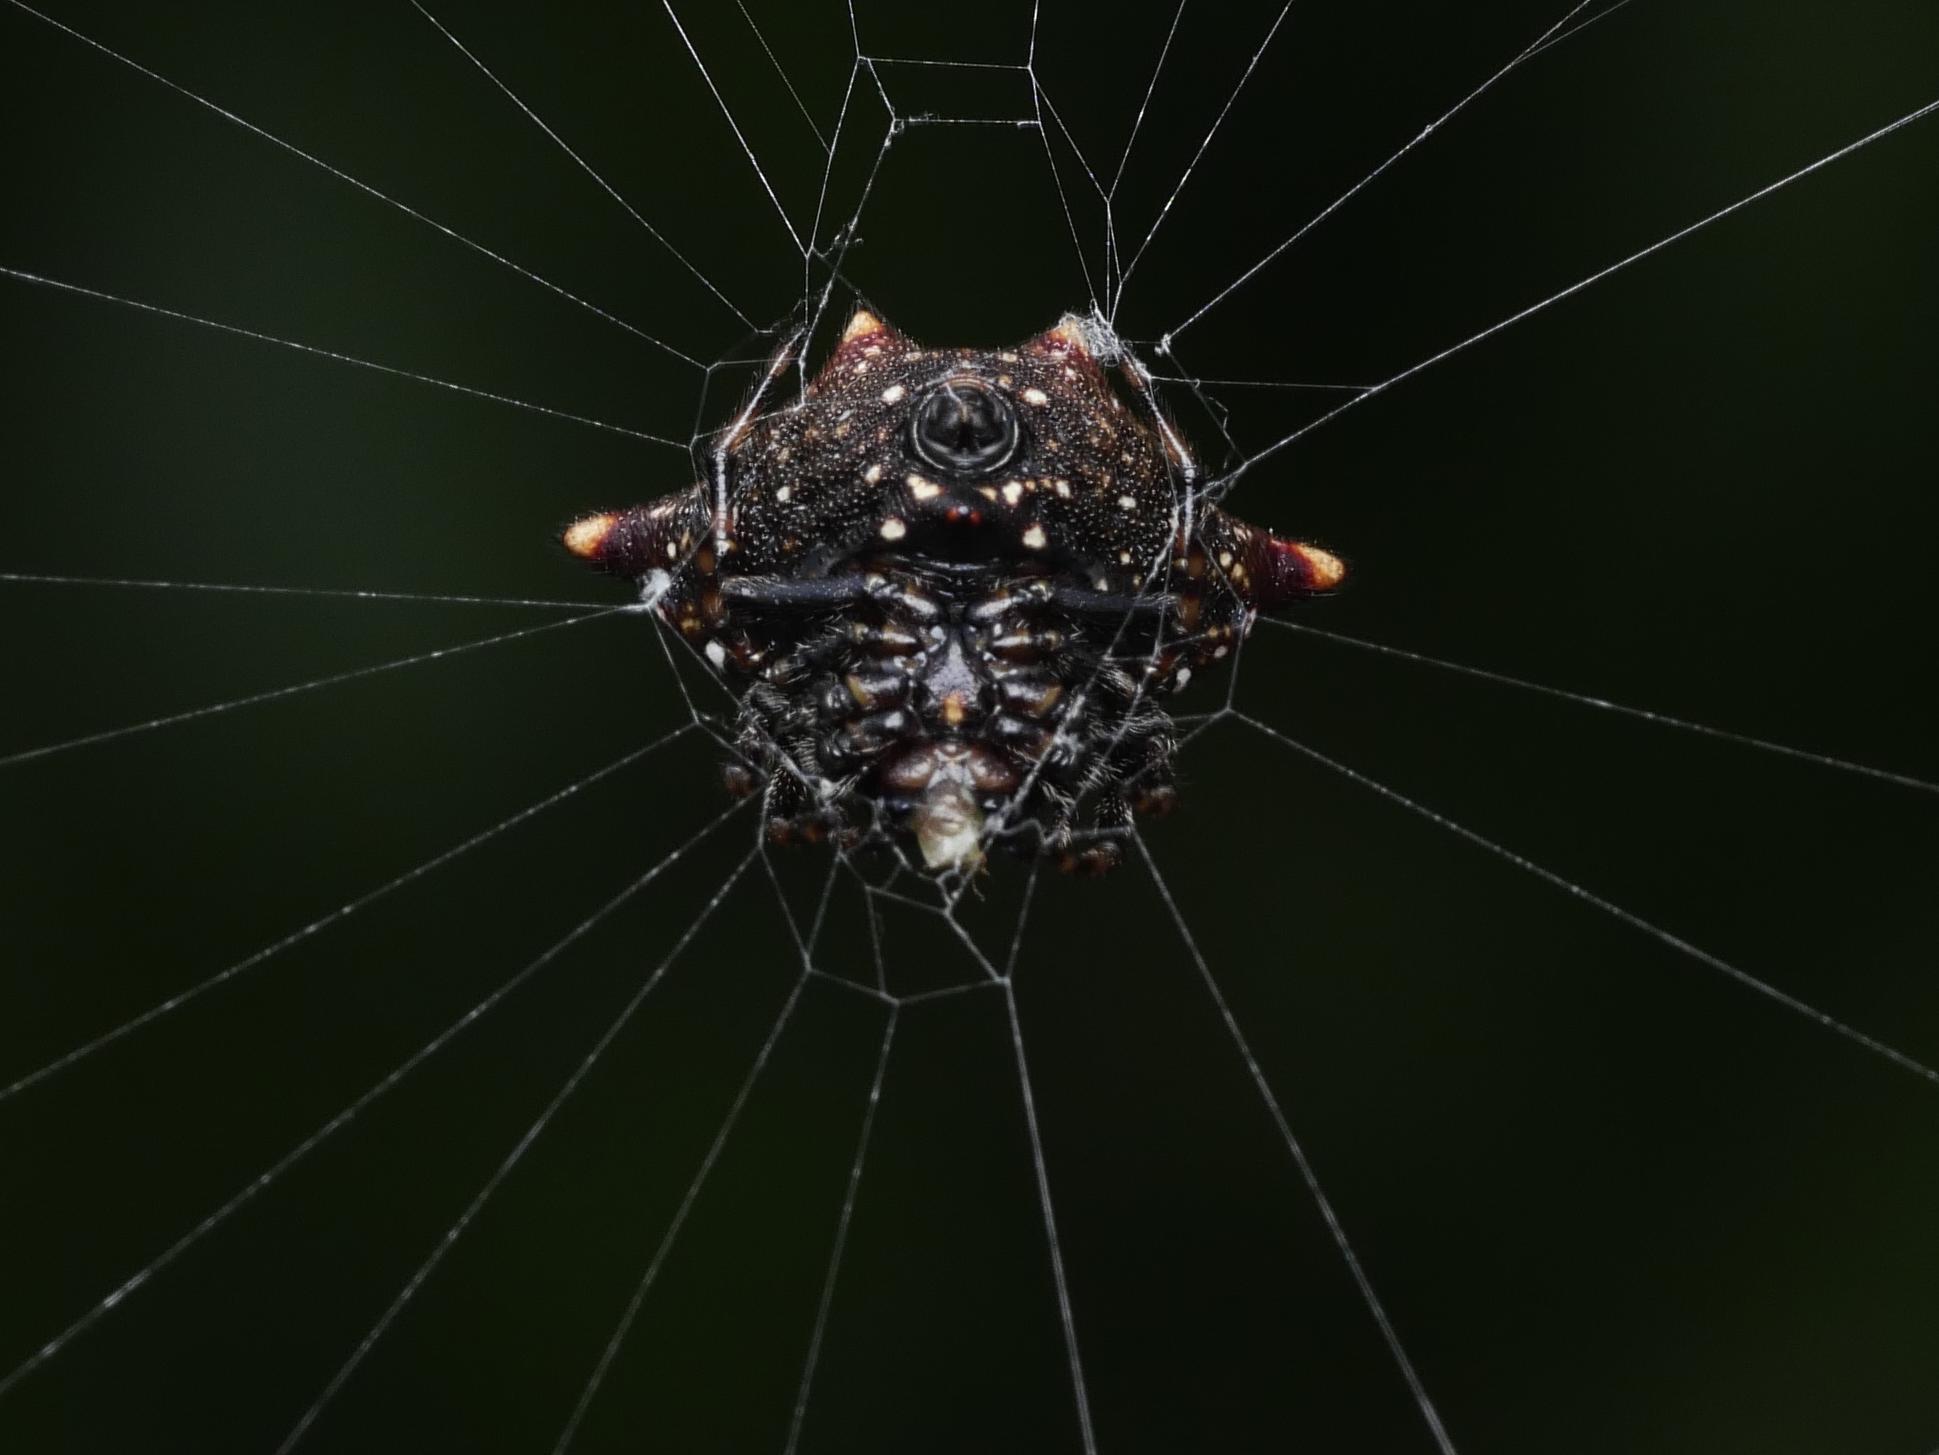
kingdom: Animalia
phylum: Arthropoda
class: Arachnida
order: Araneae
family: Araneidae
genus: Gasteracantha
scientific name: Gasteracantha cancriformis
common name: Orb weavers
